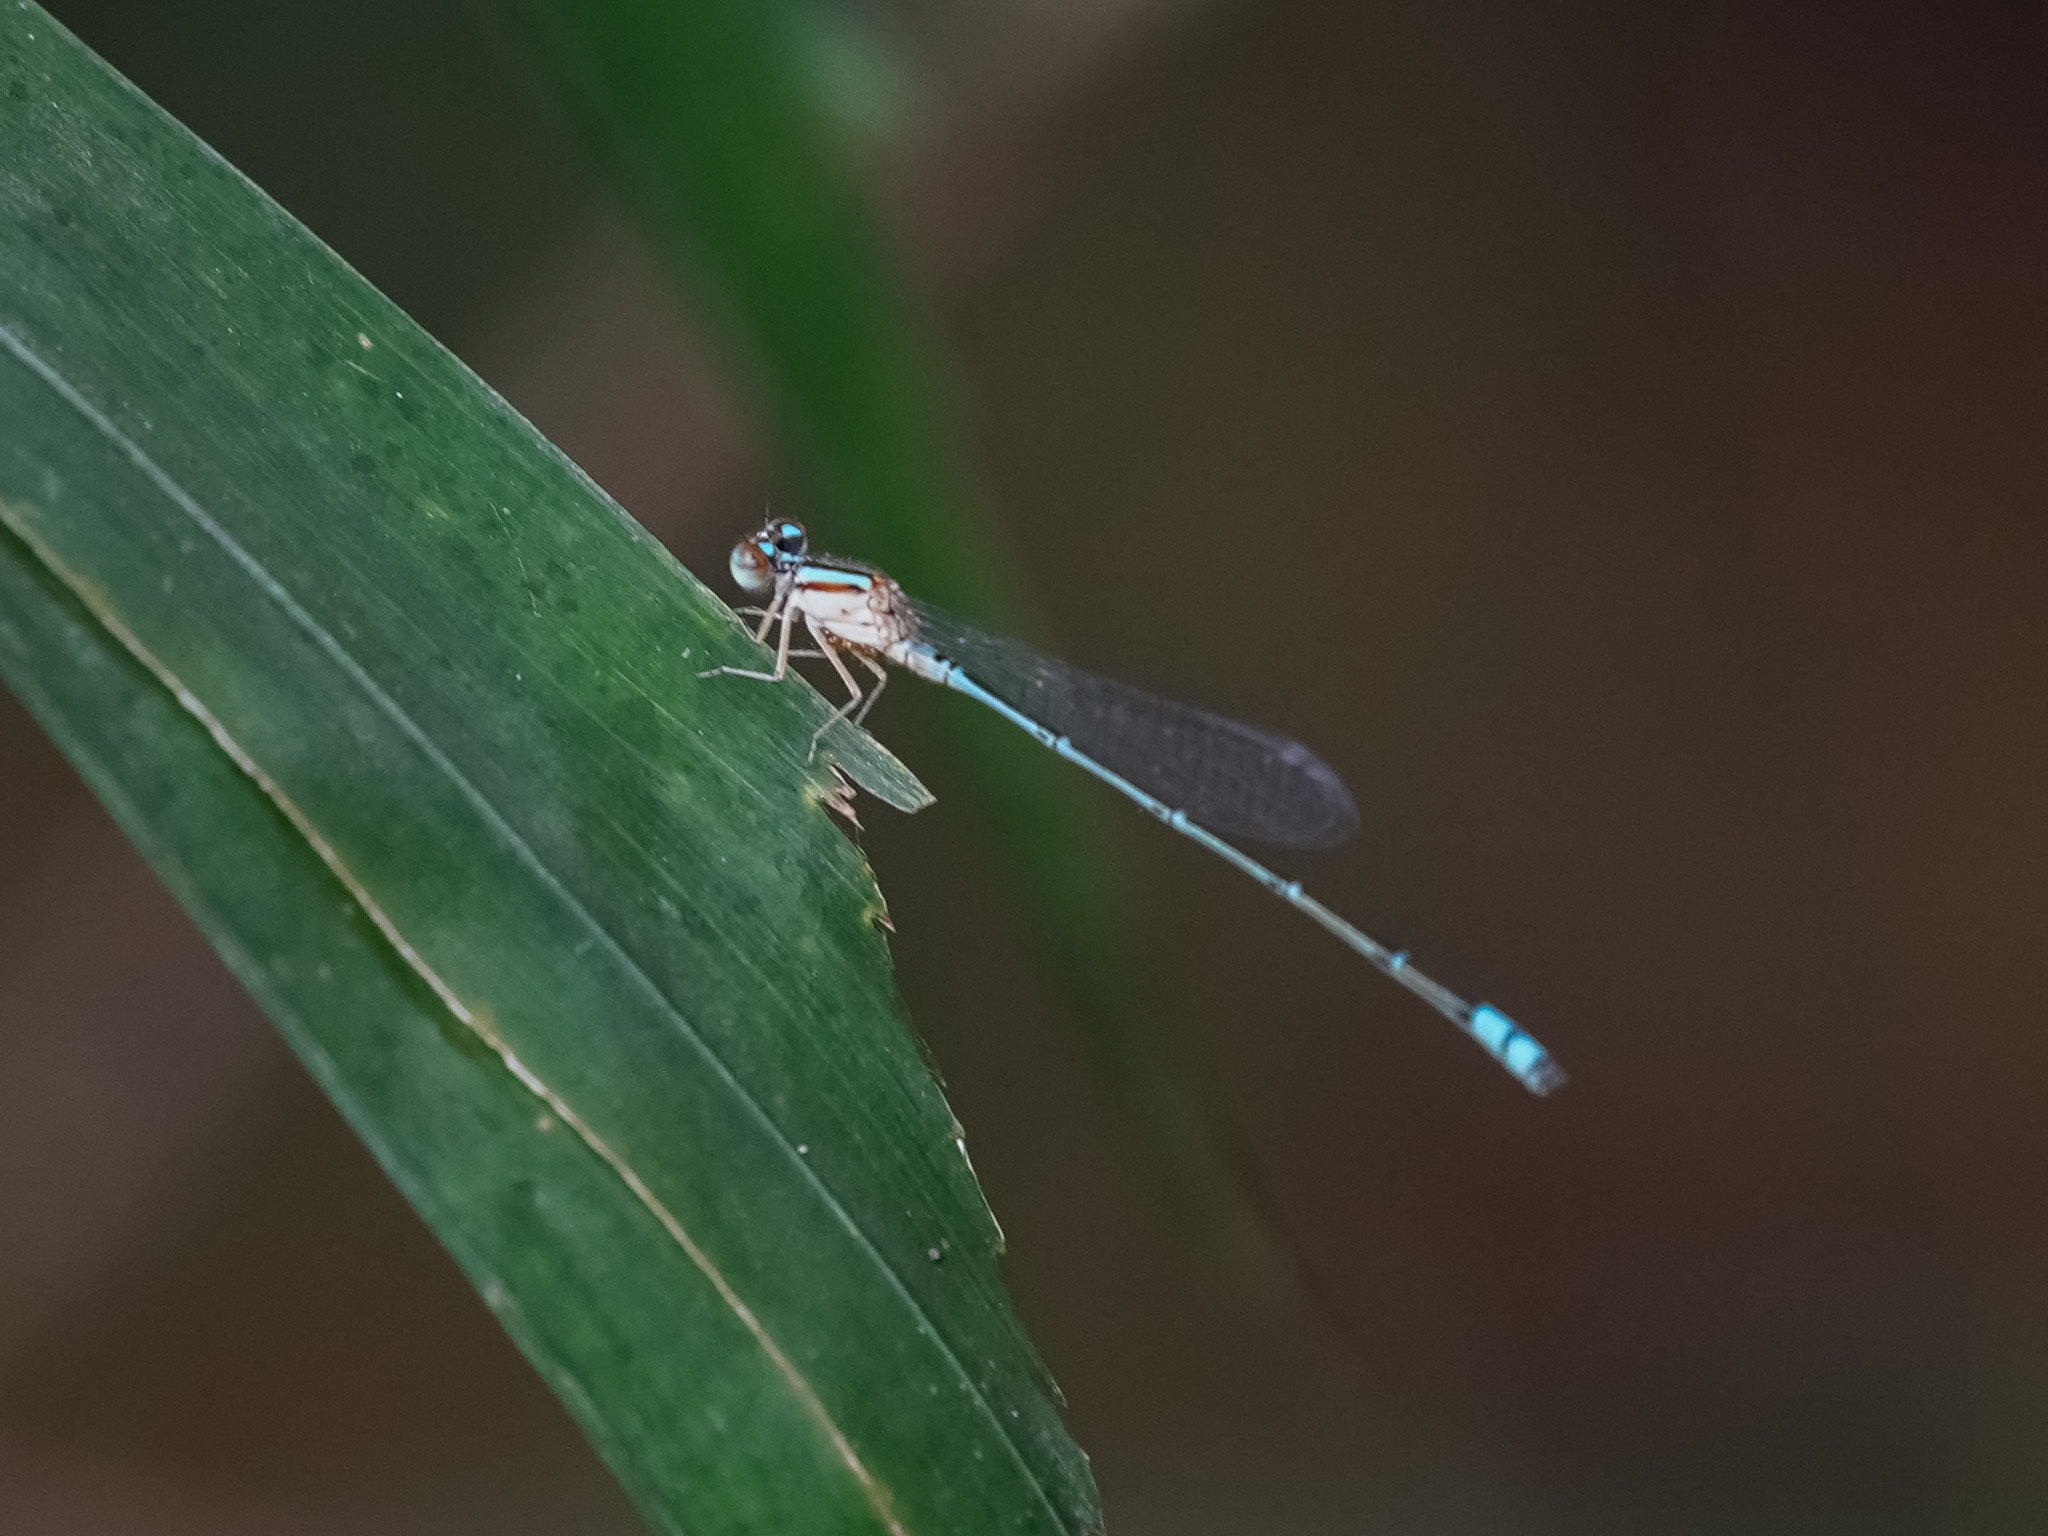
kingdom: Animalia
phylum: Arthropoda
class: Insecta
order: Odonata
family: Coenagrionidae
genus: Pseudagrion
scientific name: Pseudagrion microcephalum
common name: Blue riverdamsel
